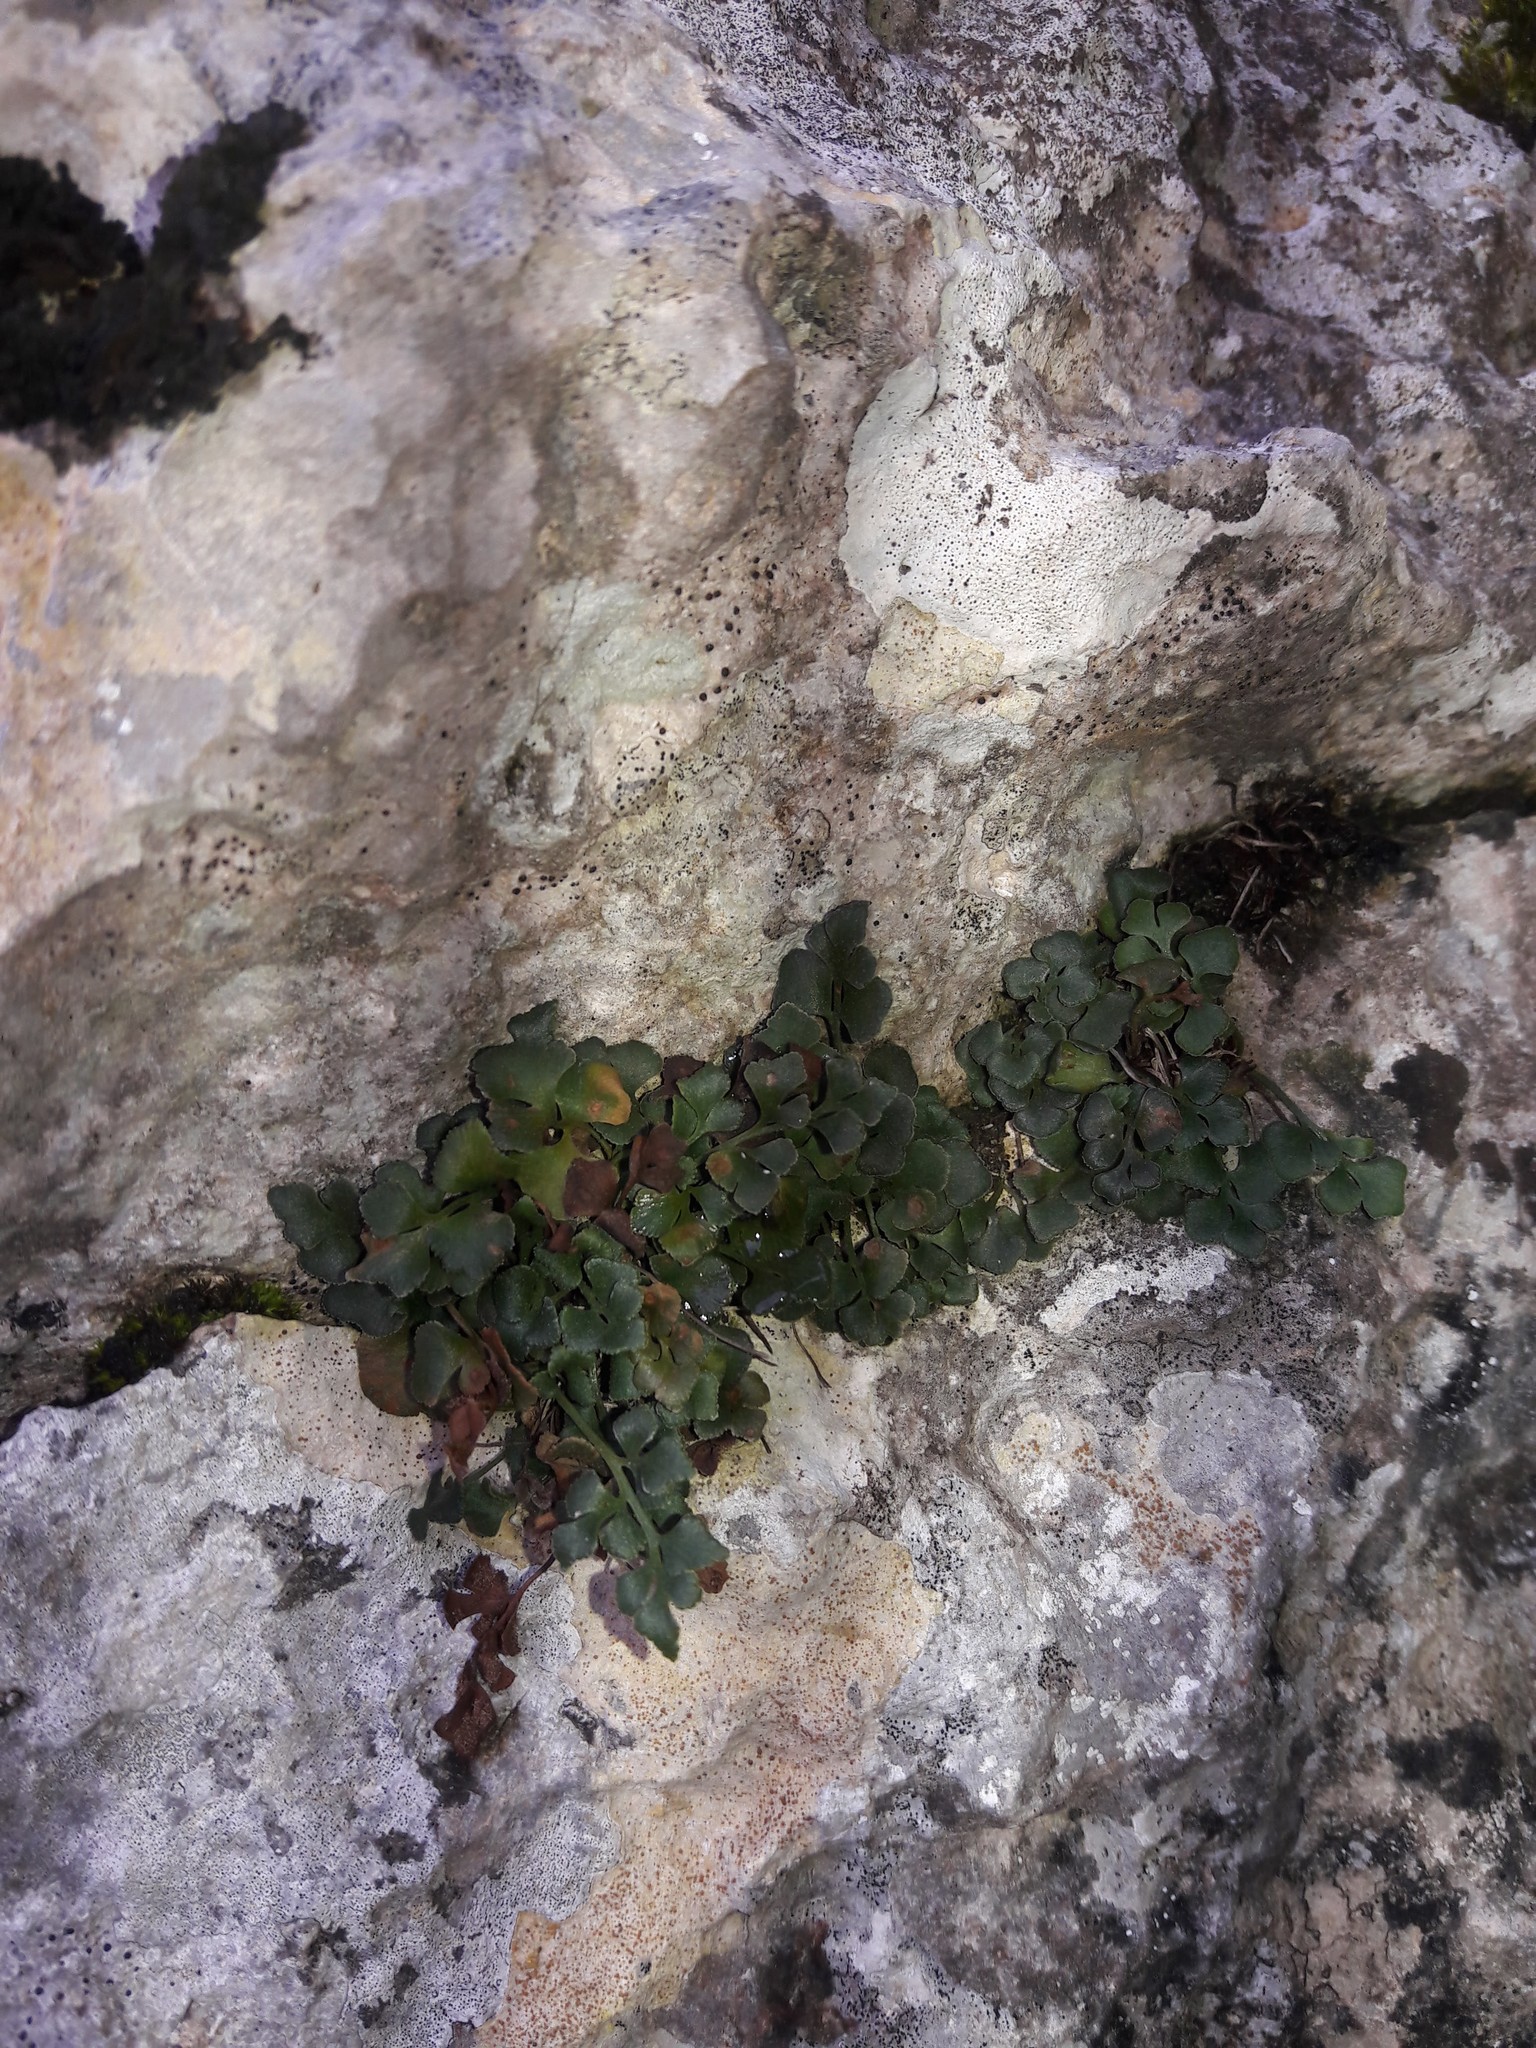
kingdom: Plantae
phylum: Tracheophyta
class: Polypodiopsida
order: Polypodiales
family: Aspleniaceae
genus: Asplenium
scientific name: Asplenium ruta-muraria
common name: Wall-rue
